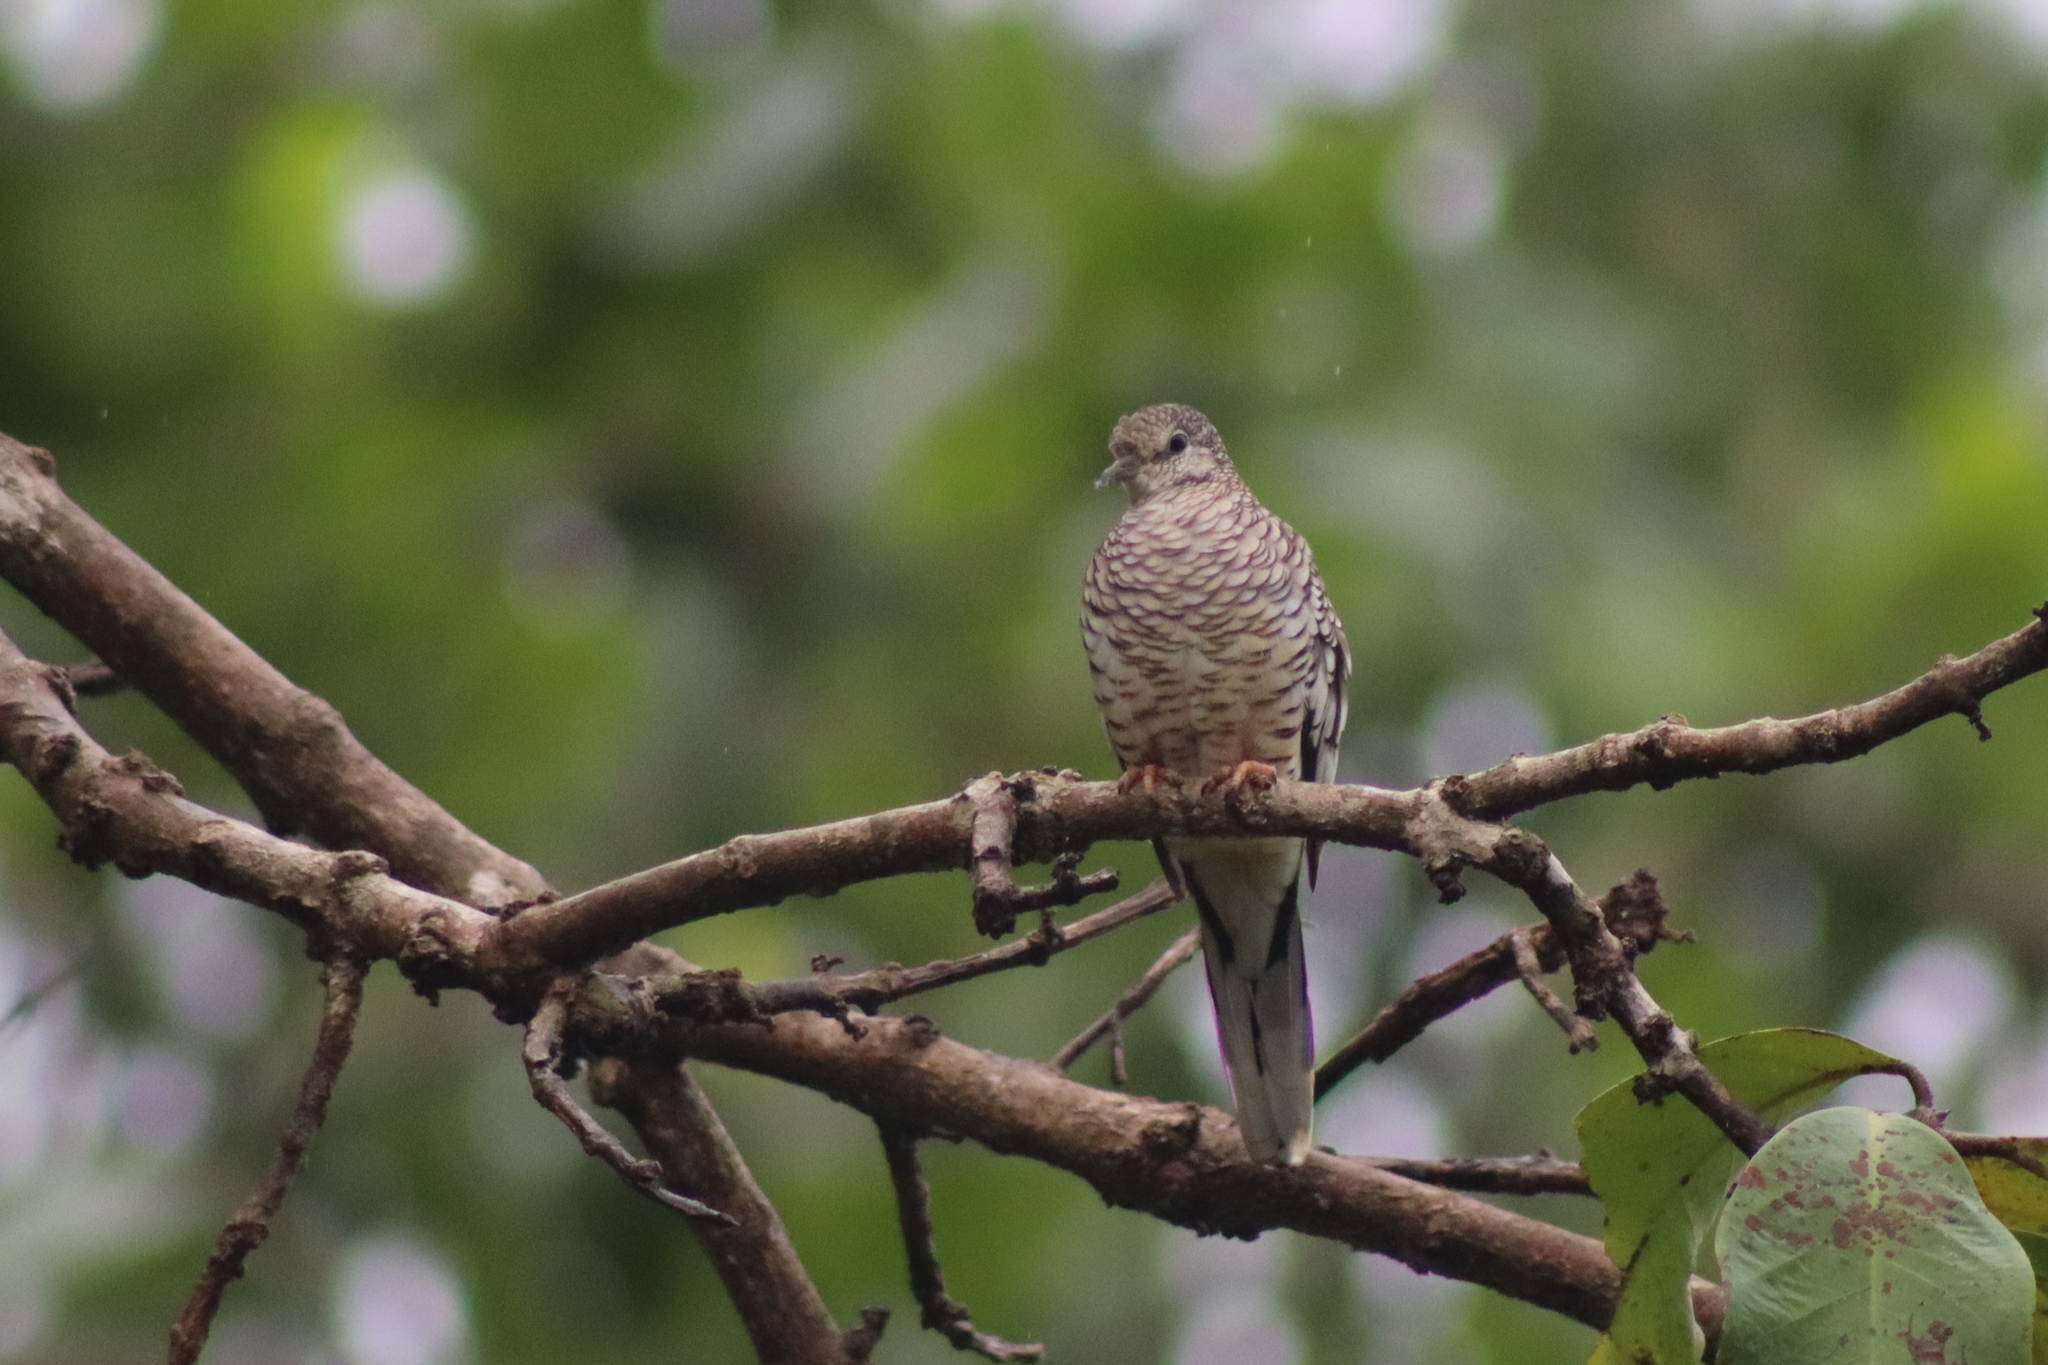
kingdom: Animalia
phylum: Chordata
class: Aves
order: Columbiformes
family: Columbidae
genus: Columbina
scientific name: Columbina squammata
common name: Scaled dove
